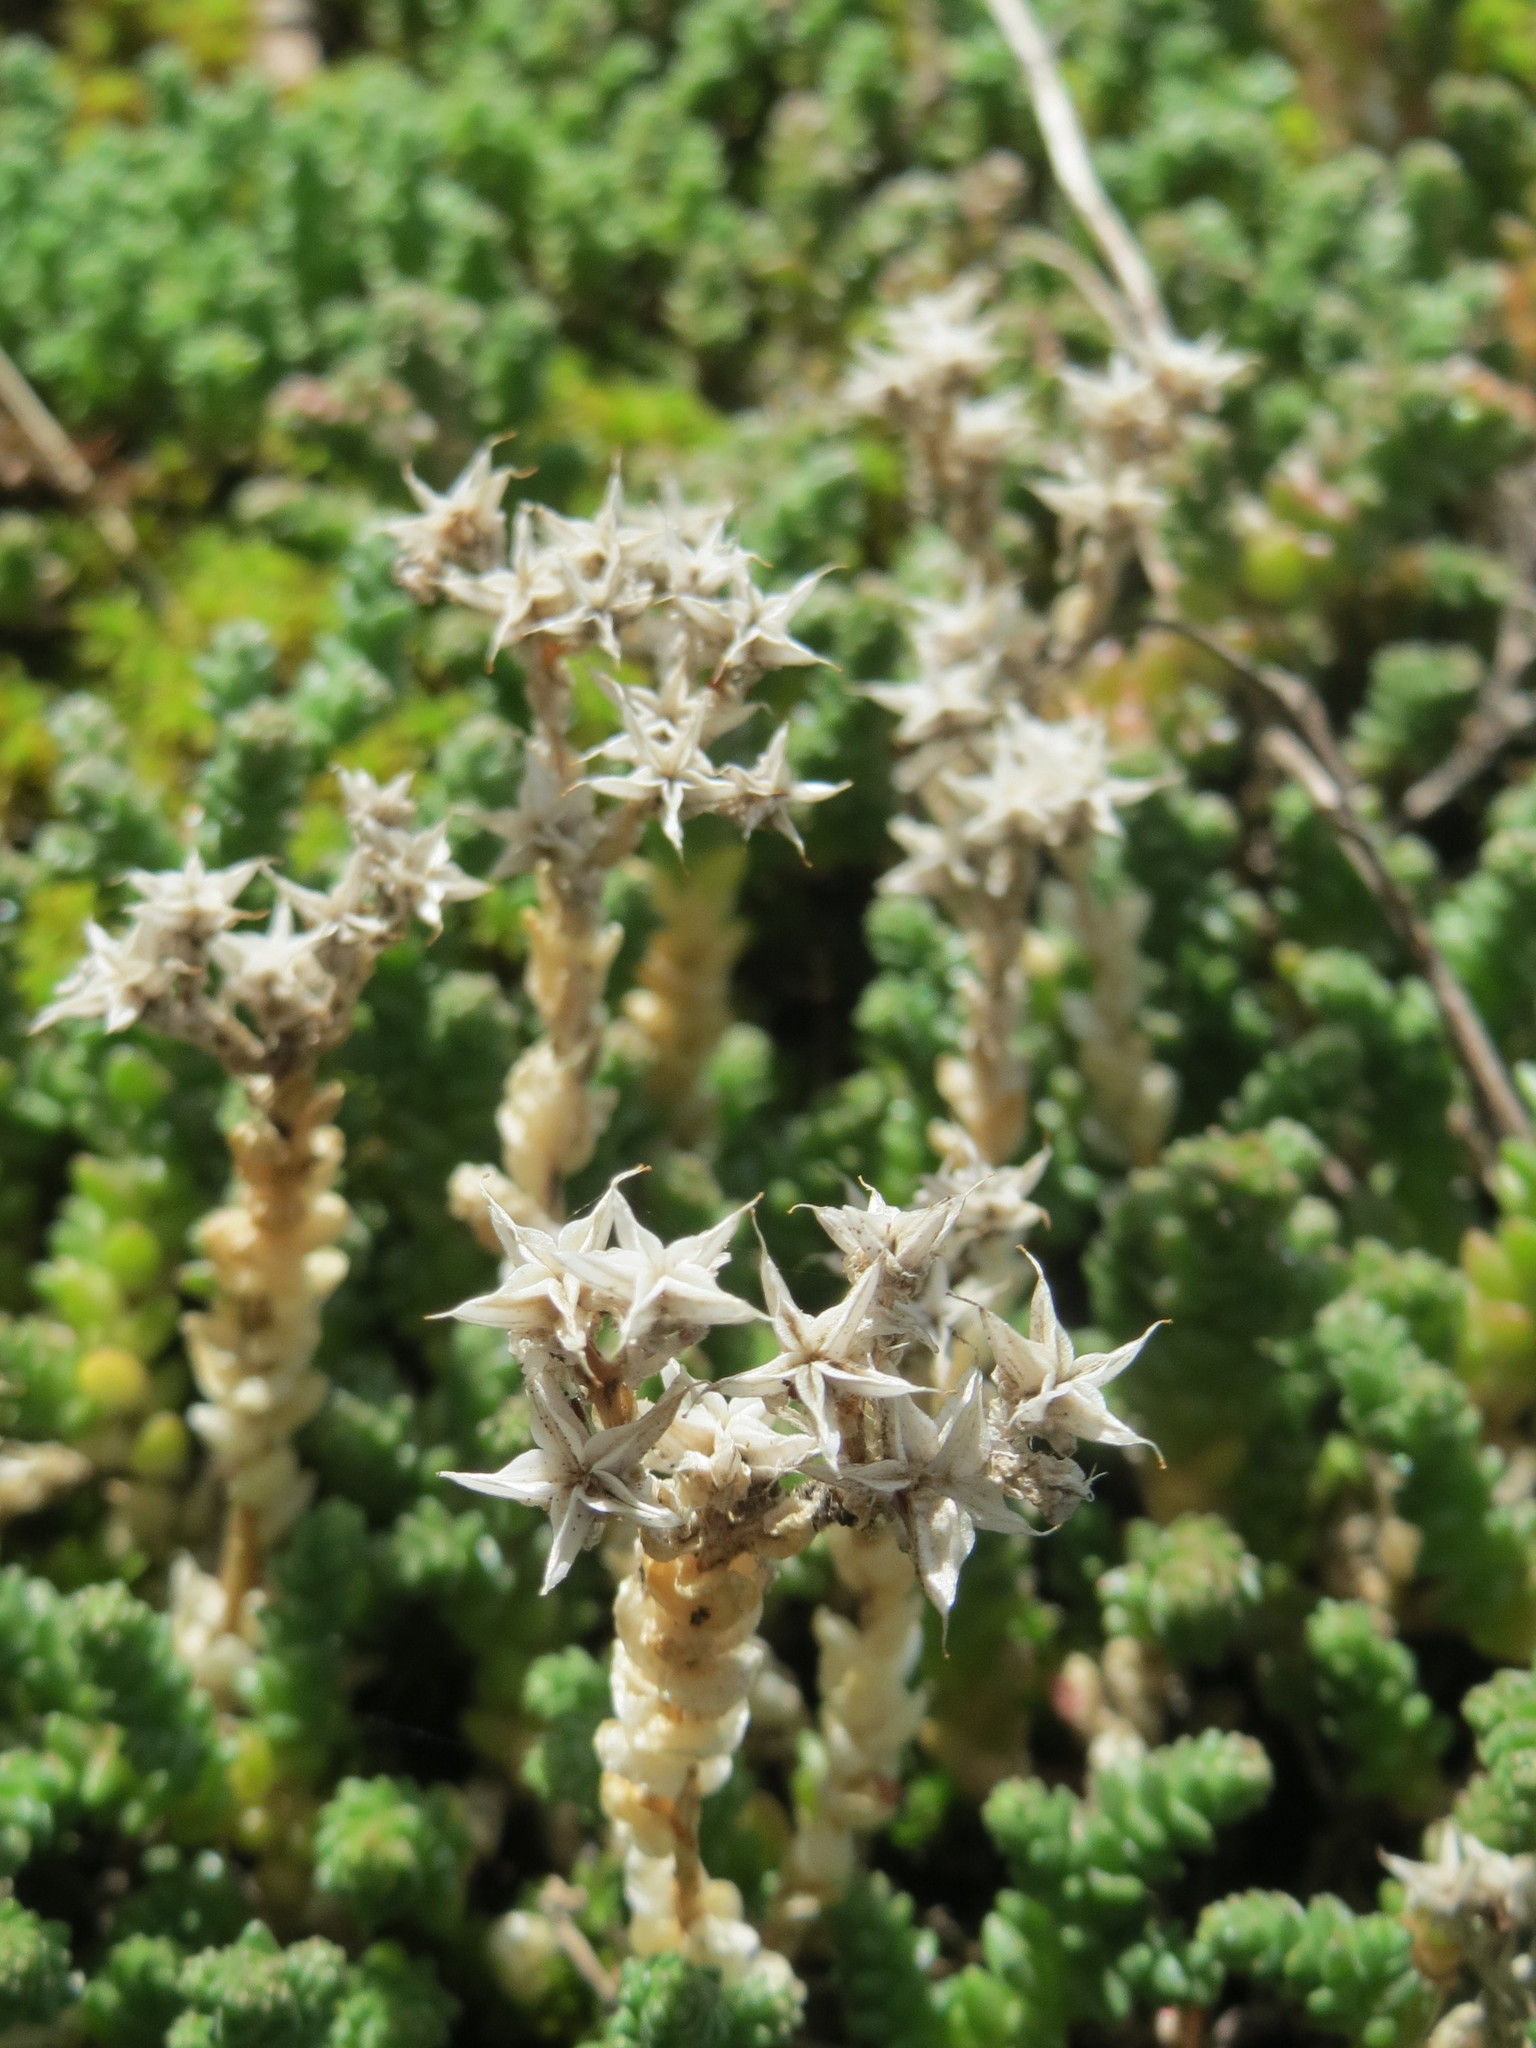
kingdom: Plantae
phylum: Tracheophyta
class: Magnoliopsida
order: Saxifragales
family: Crassulaceae
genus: Sedum
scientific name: Sedum acre
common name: Biting stonecrop
